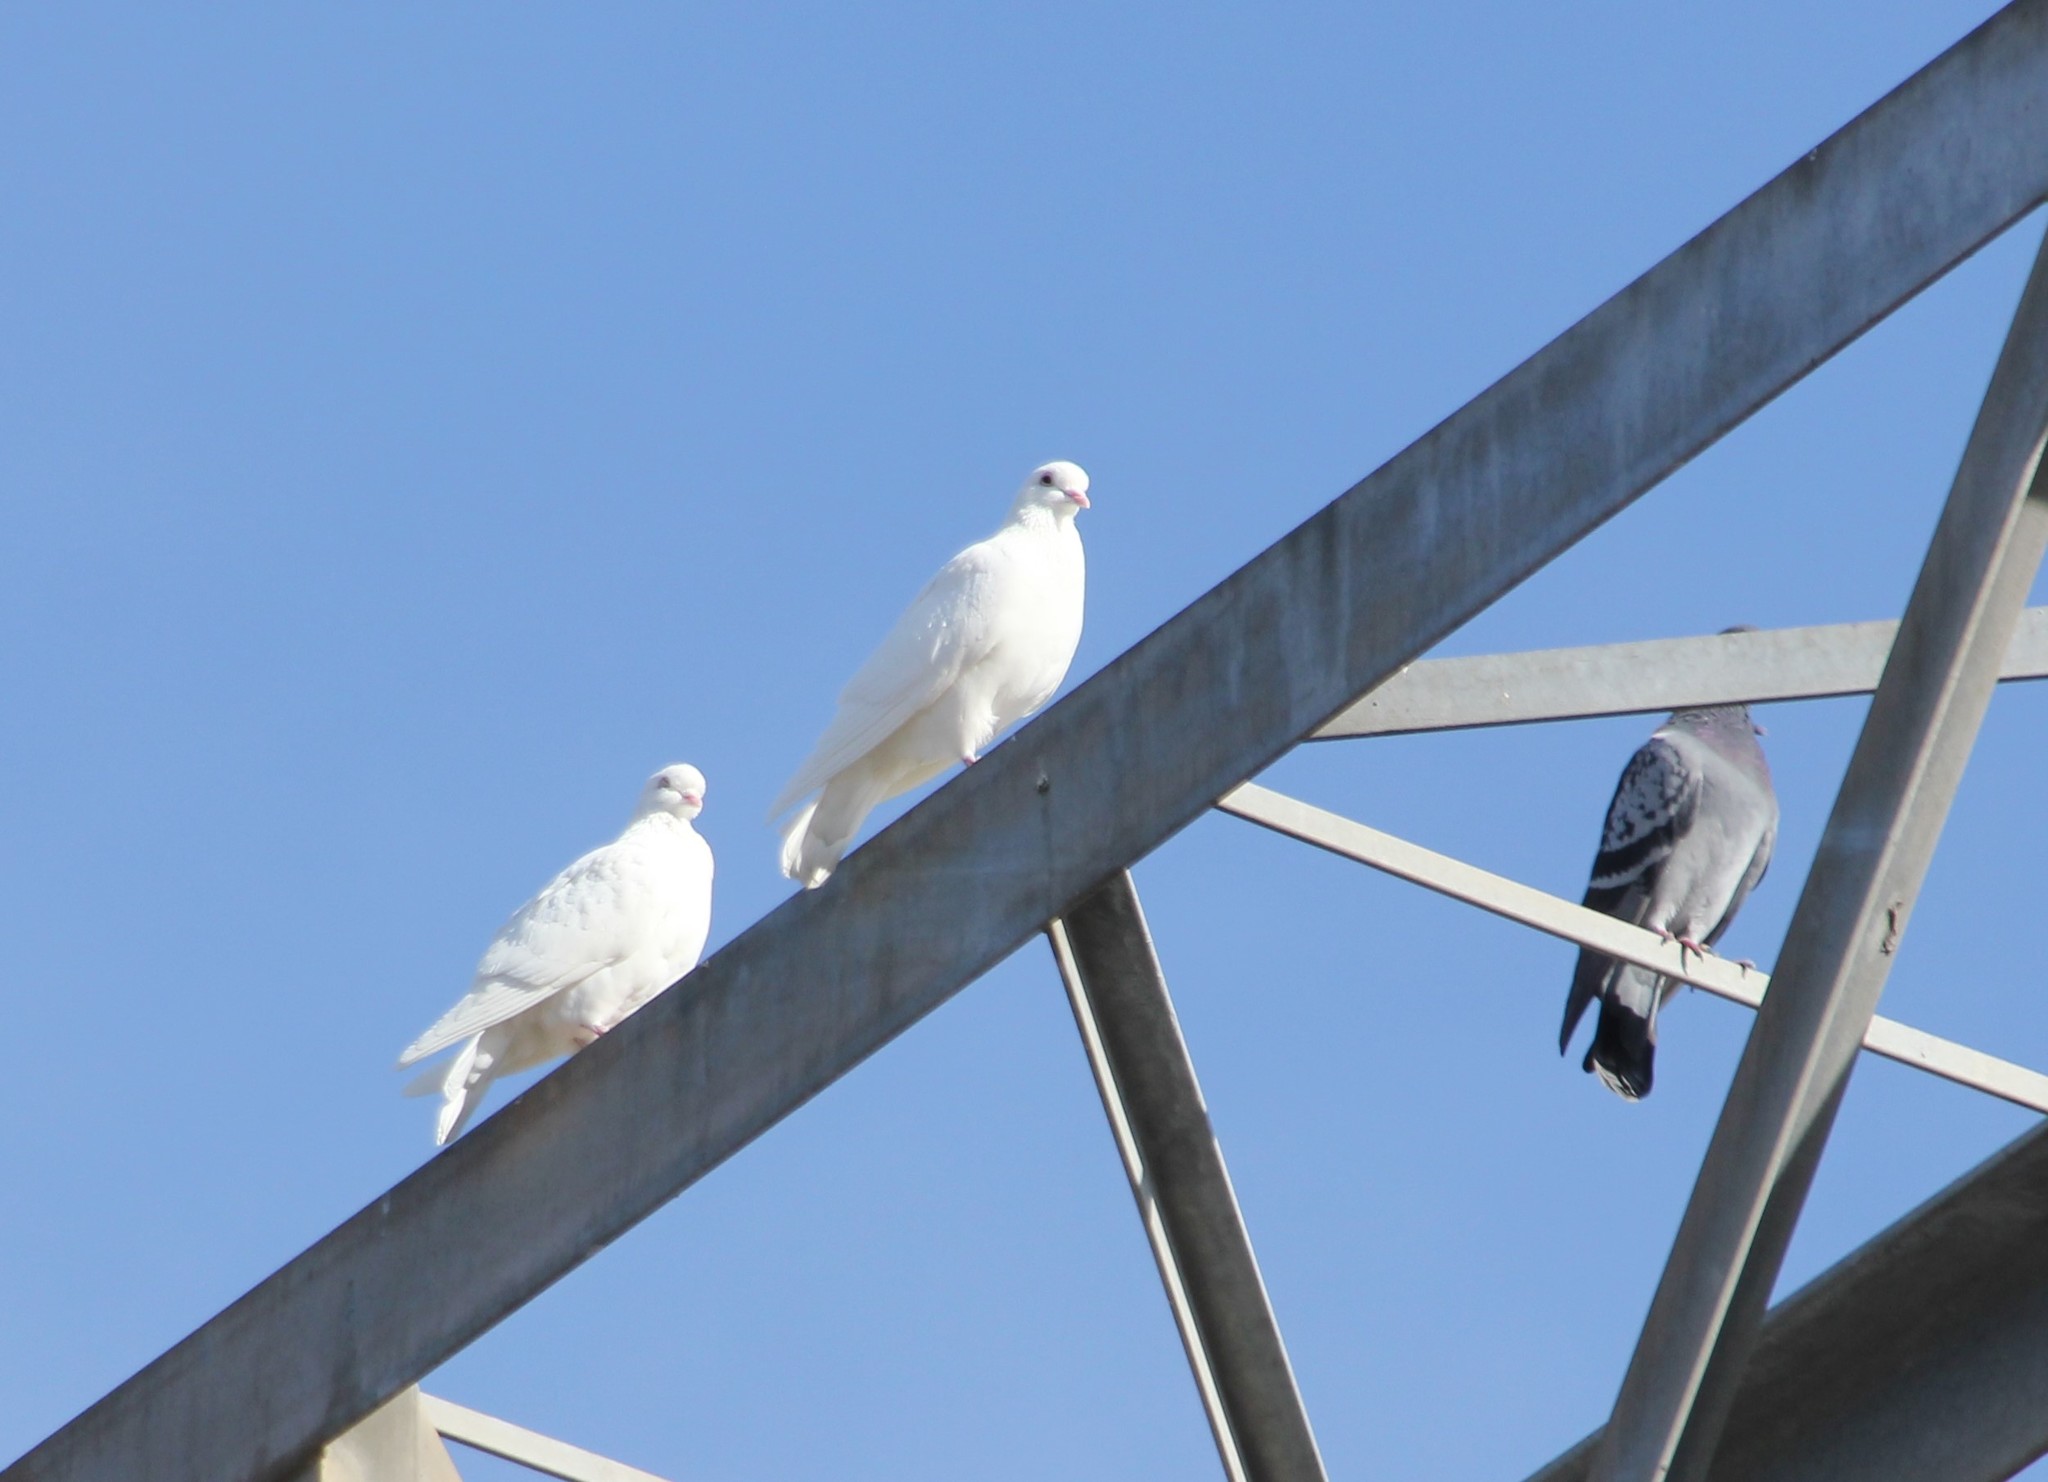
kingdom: Animalia
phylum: Chordata
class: Aves
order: Columbiformes
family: Columbidae
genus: Columba
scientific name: Columba livia
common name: Rock pigeon
